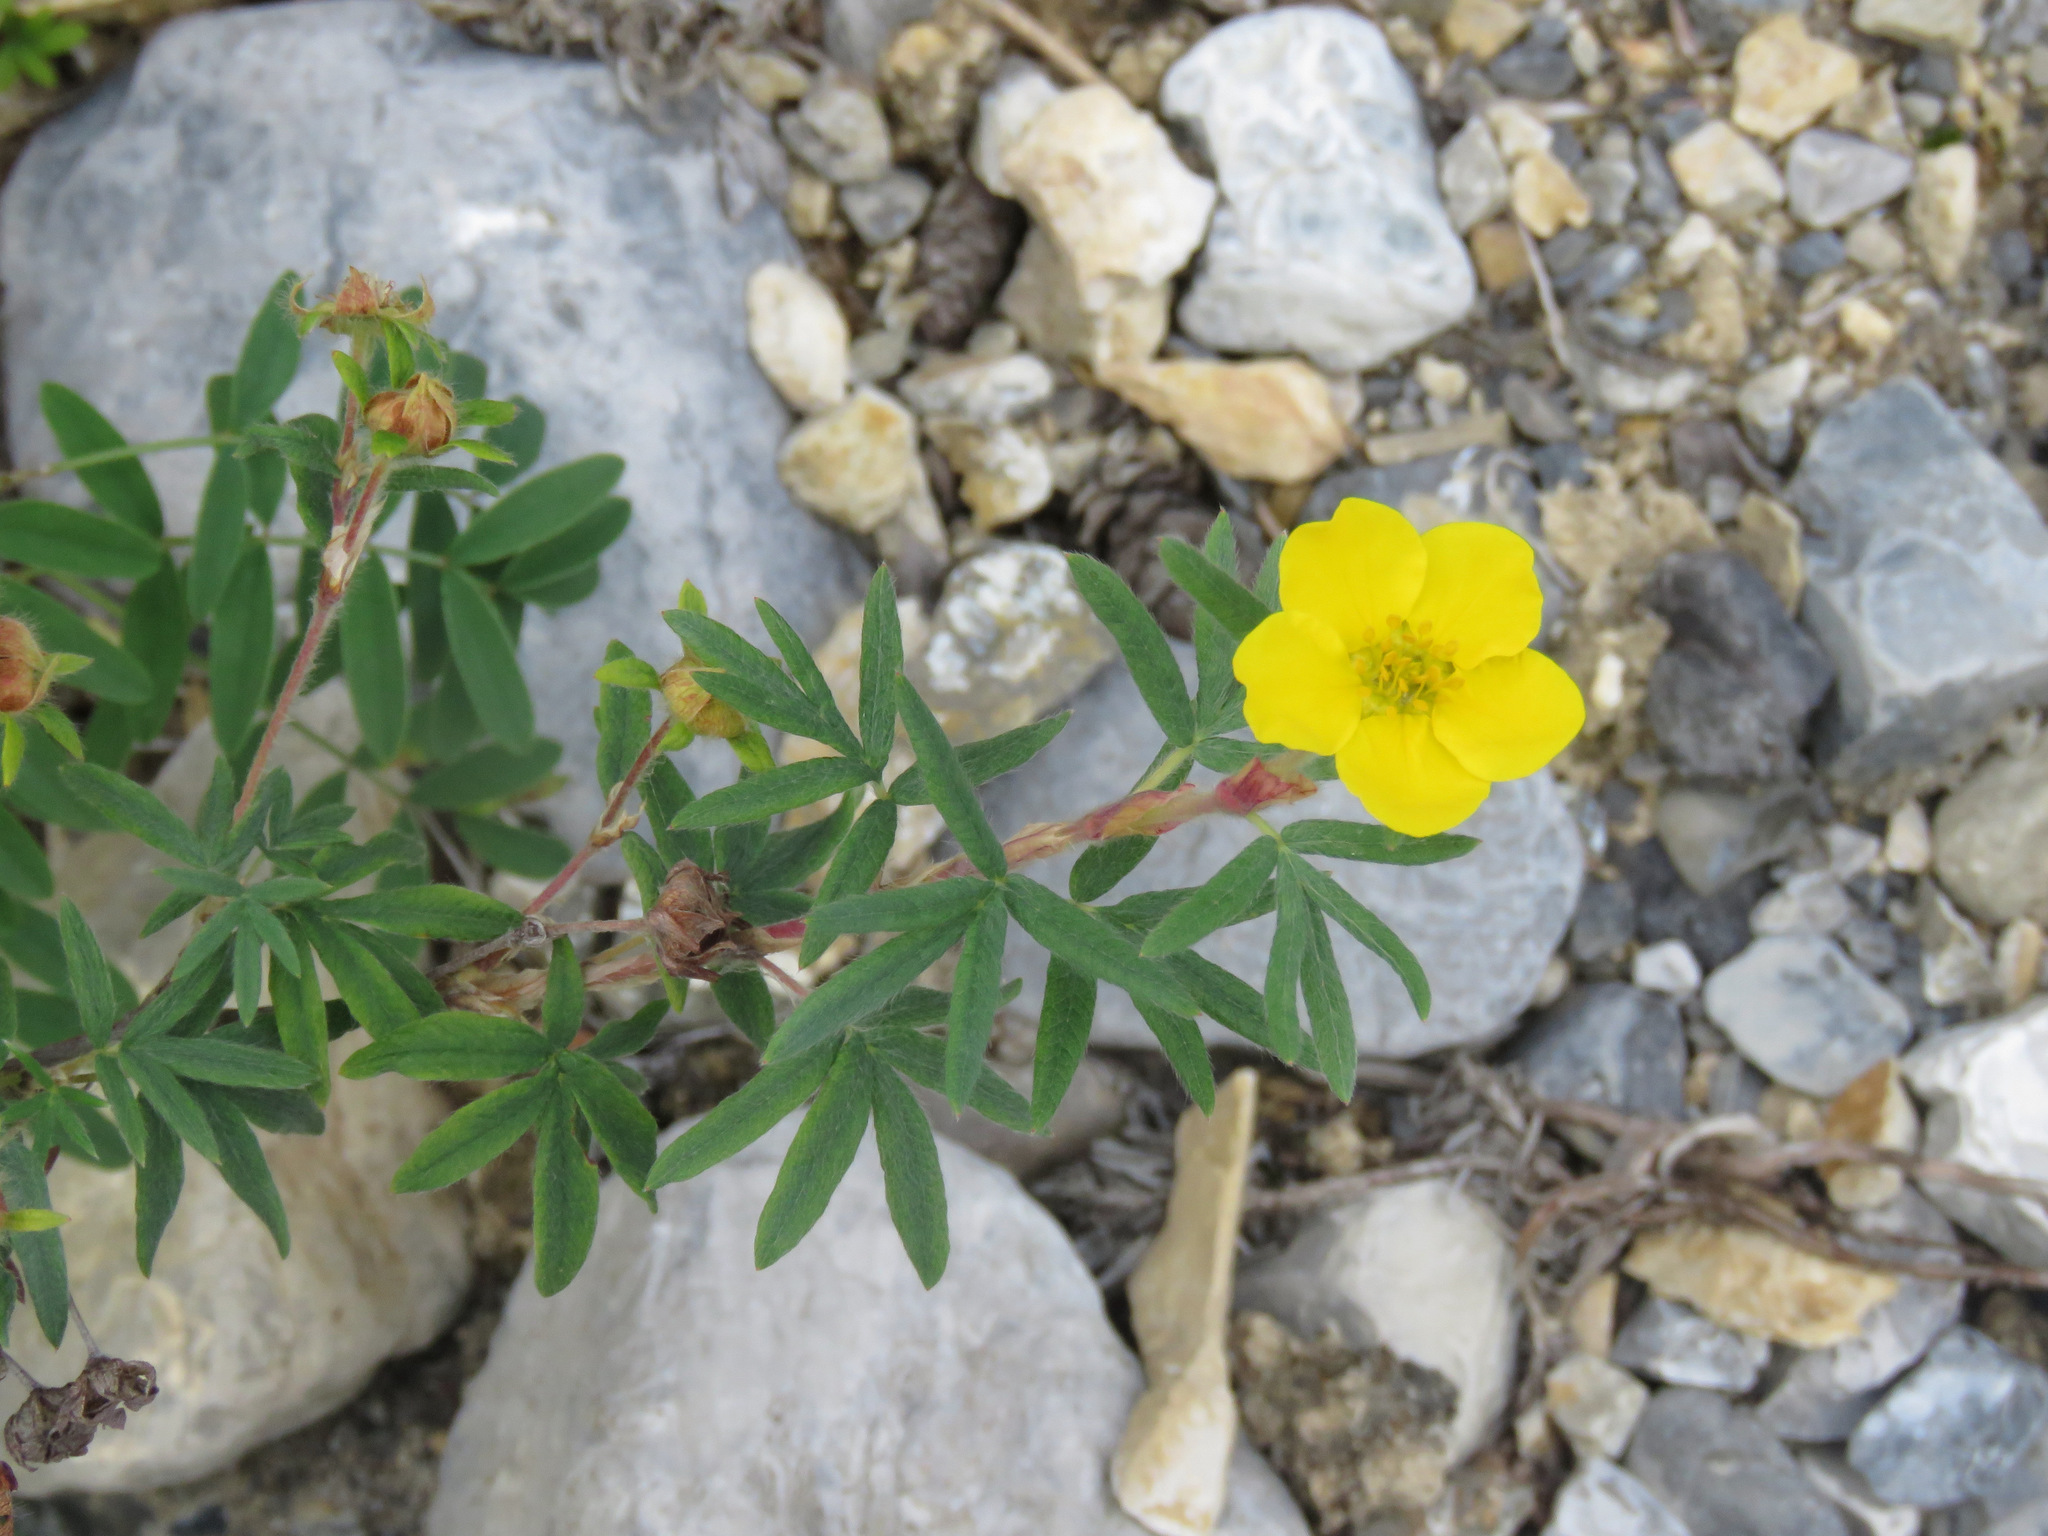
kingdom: Plantae
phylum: Tracheophyta
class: Magnoliopsida
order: Rosales
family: Rosaceae
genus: Dasiphora
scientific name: Dasiphora fruticosa
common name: Shrubby cinquefoil
